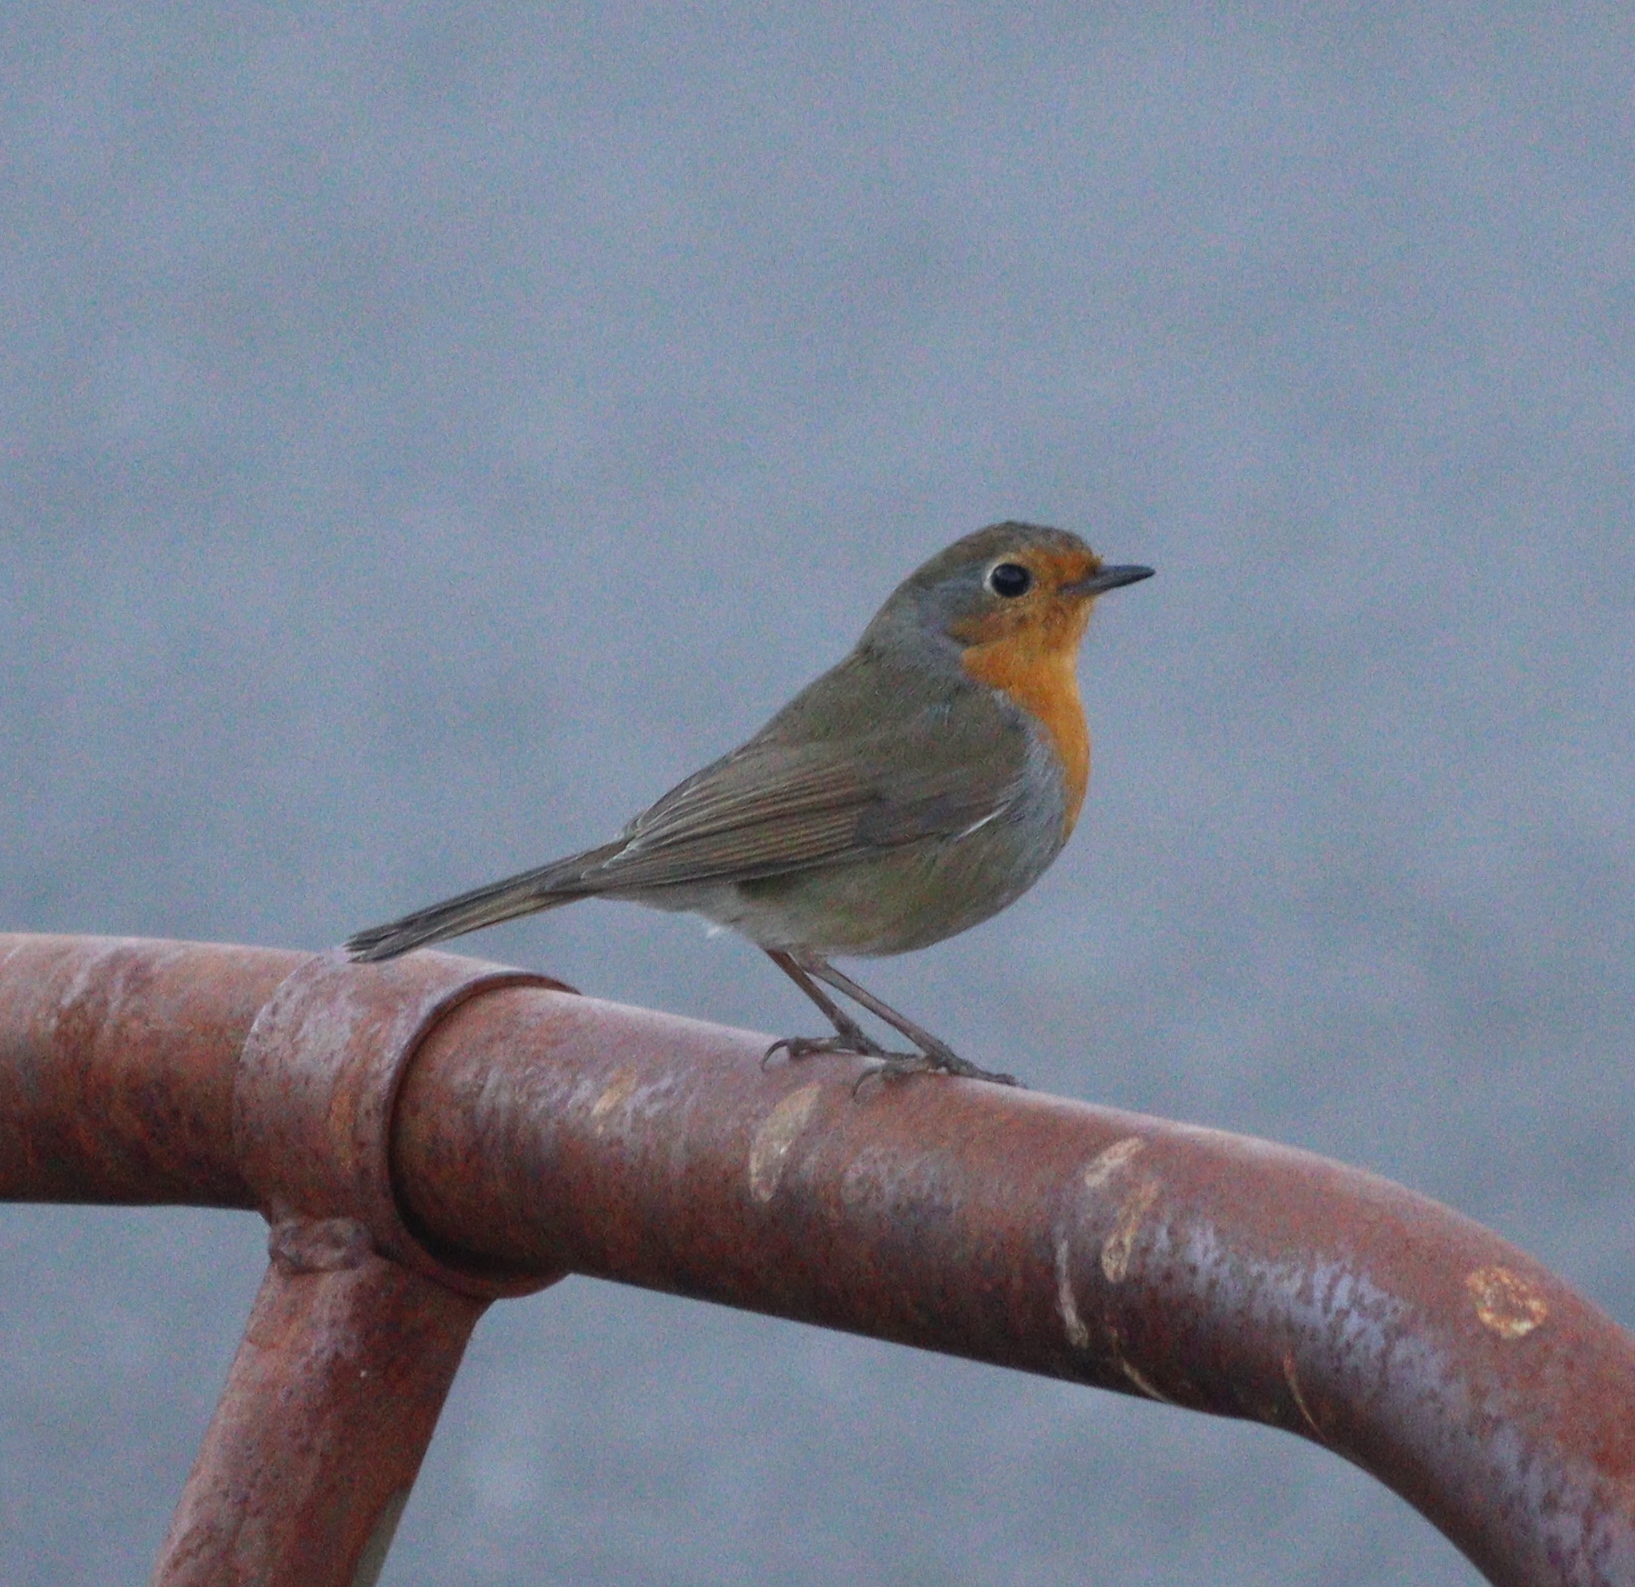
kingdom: Animalia
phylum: Chordata
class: Aves
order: Passeriformes
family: Muscicapidae
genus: Erithacus
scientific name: Erithacus rubecula
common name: European robin
